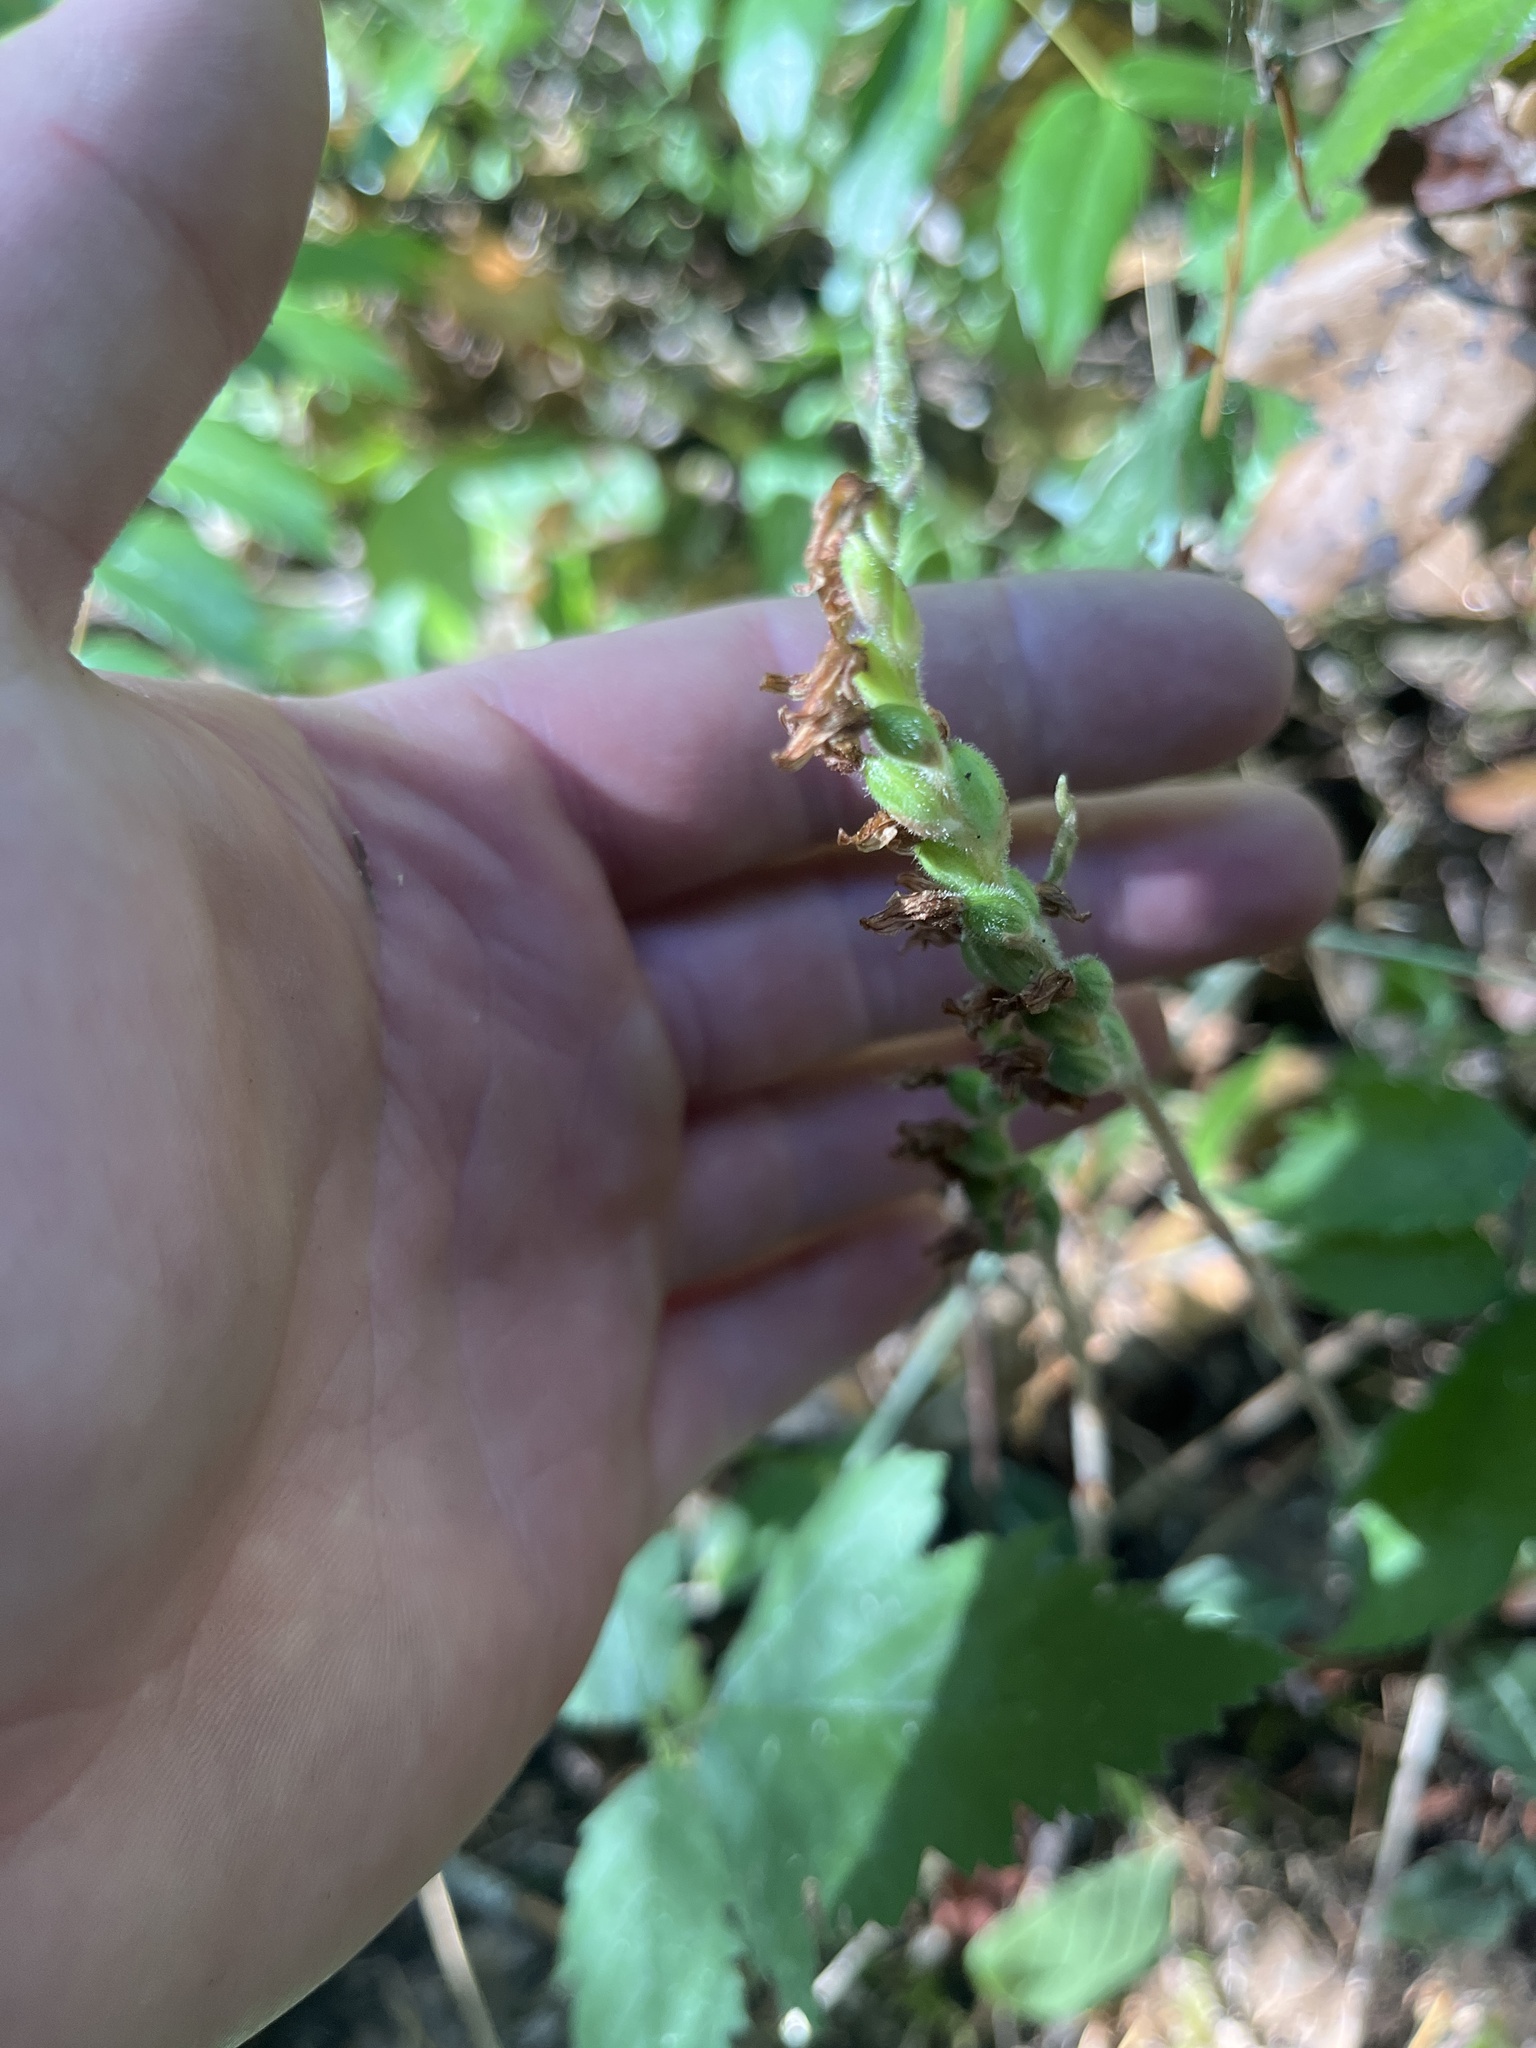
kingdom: Plantae
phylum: Tracheophyta
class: Liliopsida
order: Asparagales
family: Orchidaceae
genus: Goodyera
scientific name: Goodyera oblongifolia
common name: Giant rattlesnake-plantain
